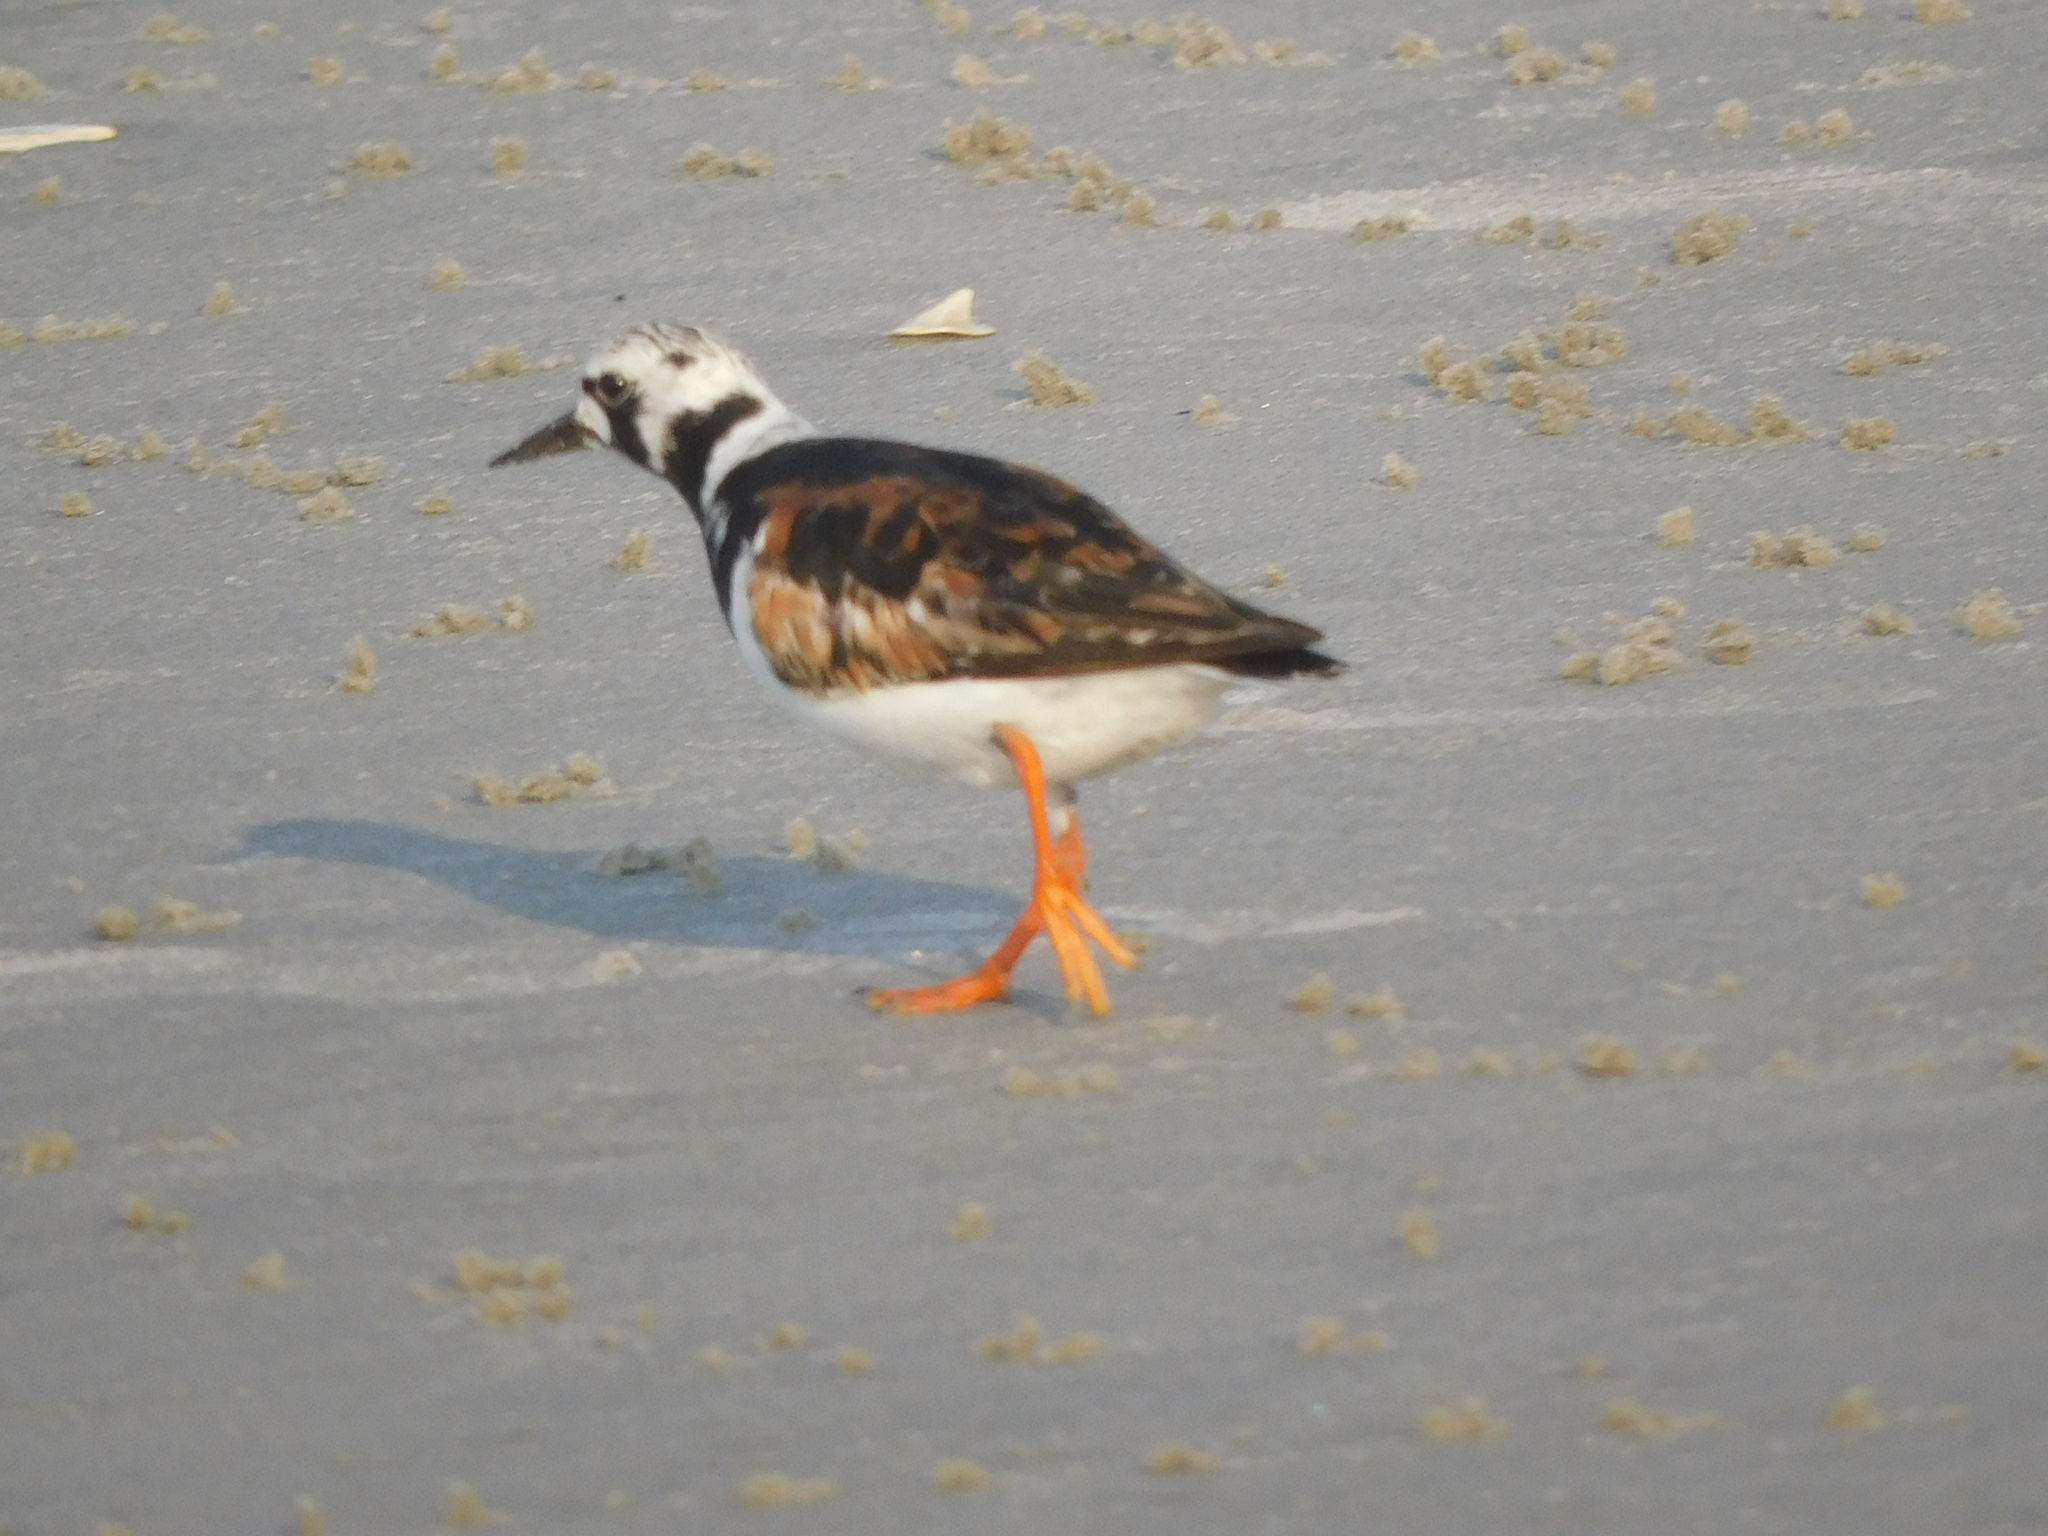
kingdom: Animalia
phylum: Chordata
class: Aves
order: Charadriiformes
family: Scolopacidae
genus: Arenaria
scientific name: Arenaria interpres
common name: Ruddy turnstone
